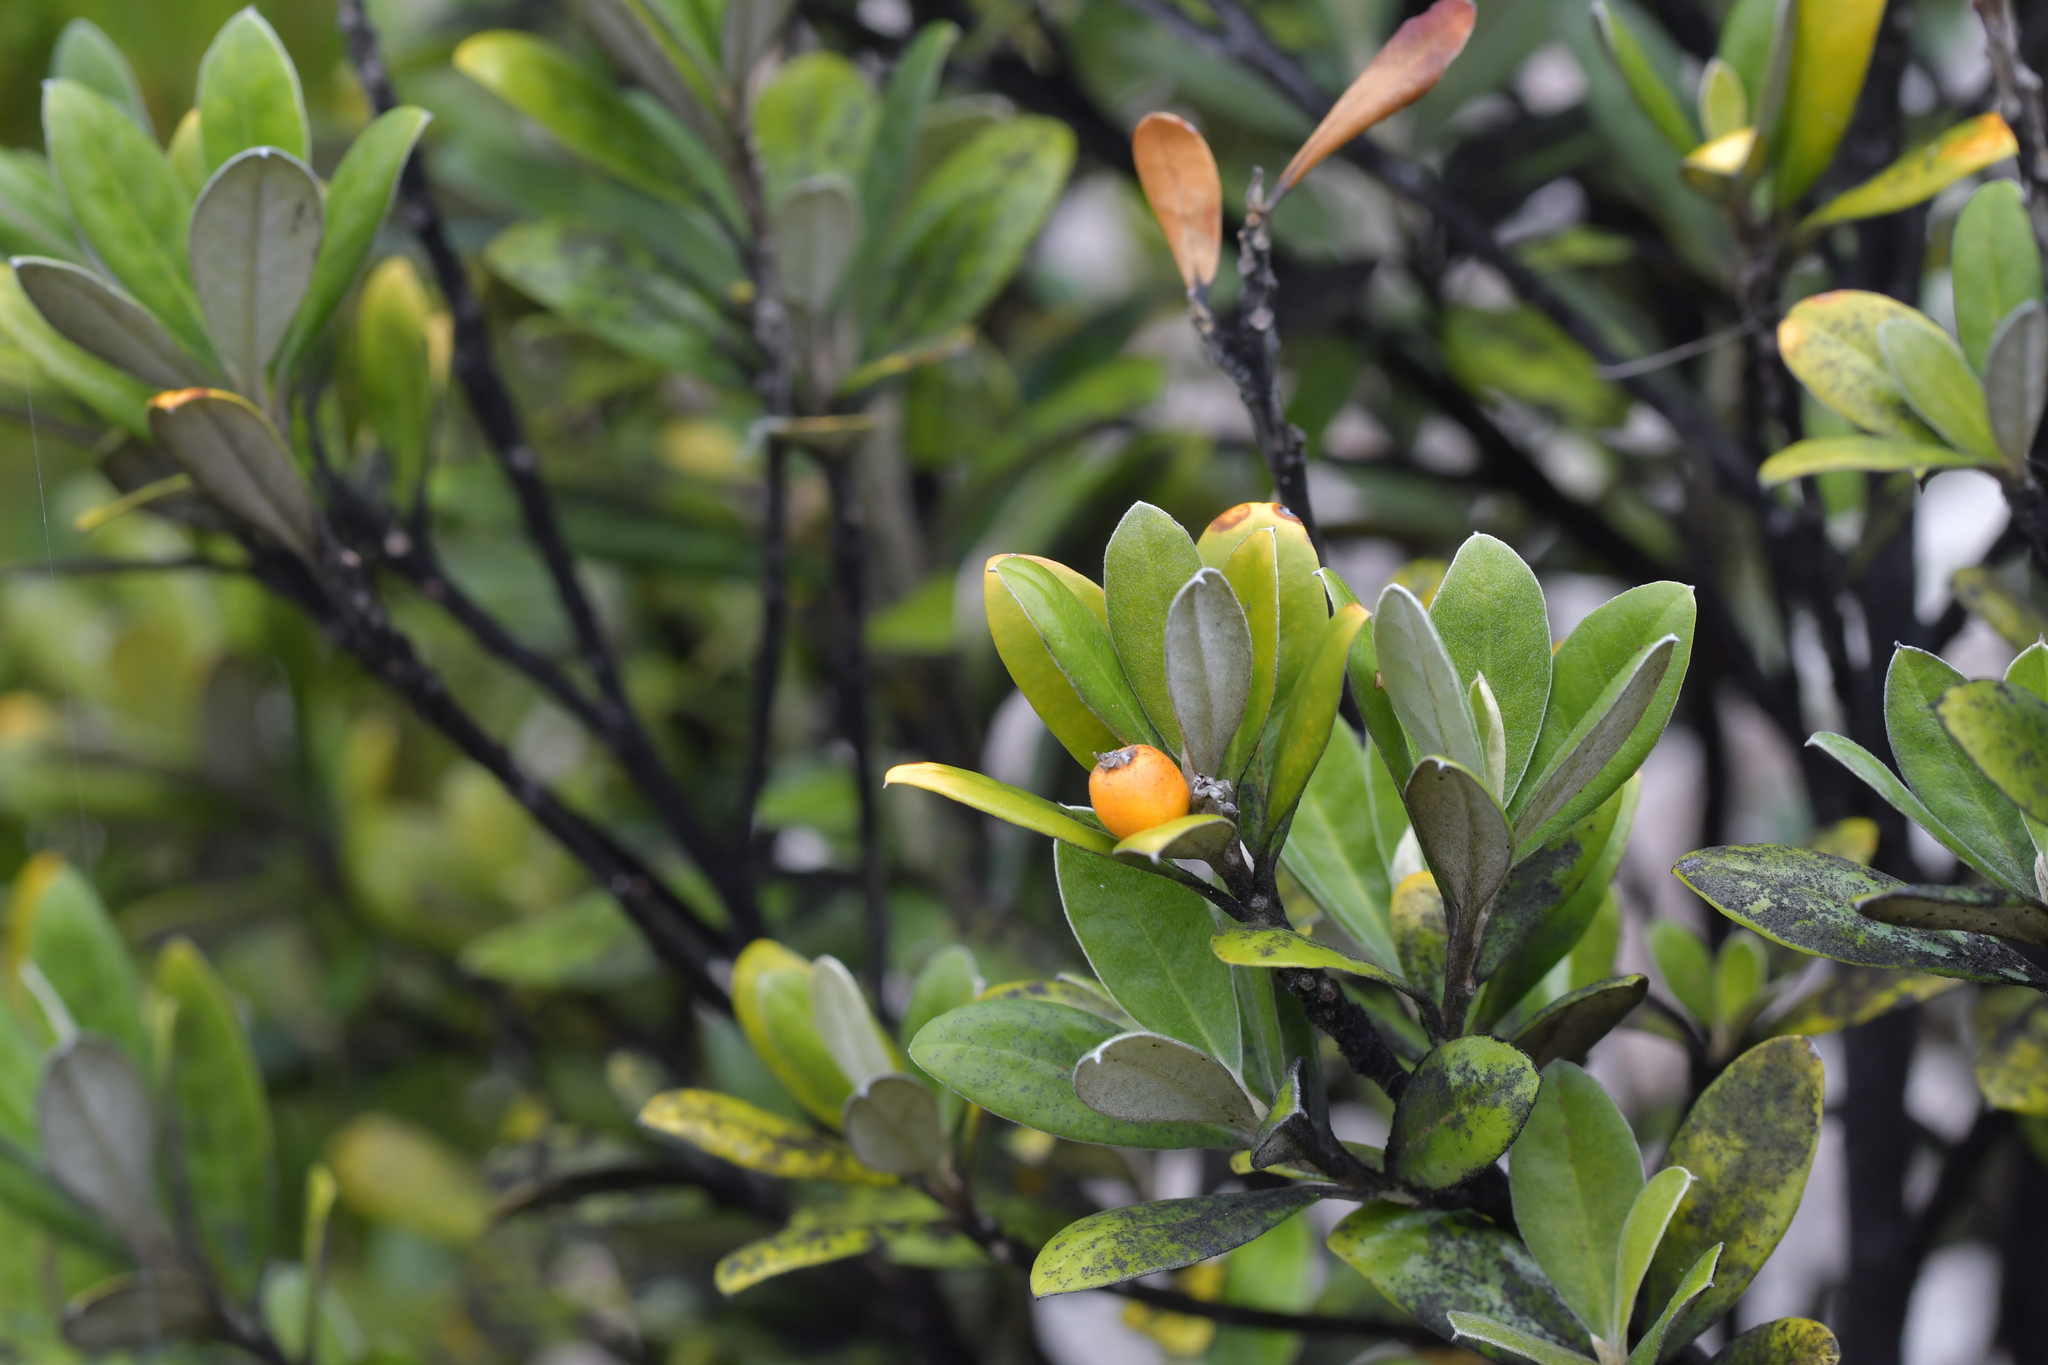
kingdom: Plantae
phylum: Tracheophyta
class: Magnoliopsida
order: Asterales
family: Argophyllaceae
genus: Corokia
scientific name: Corokia macrocarpa
